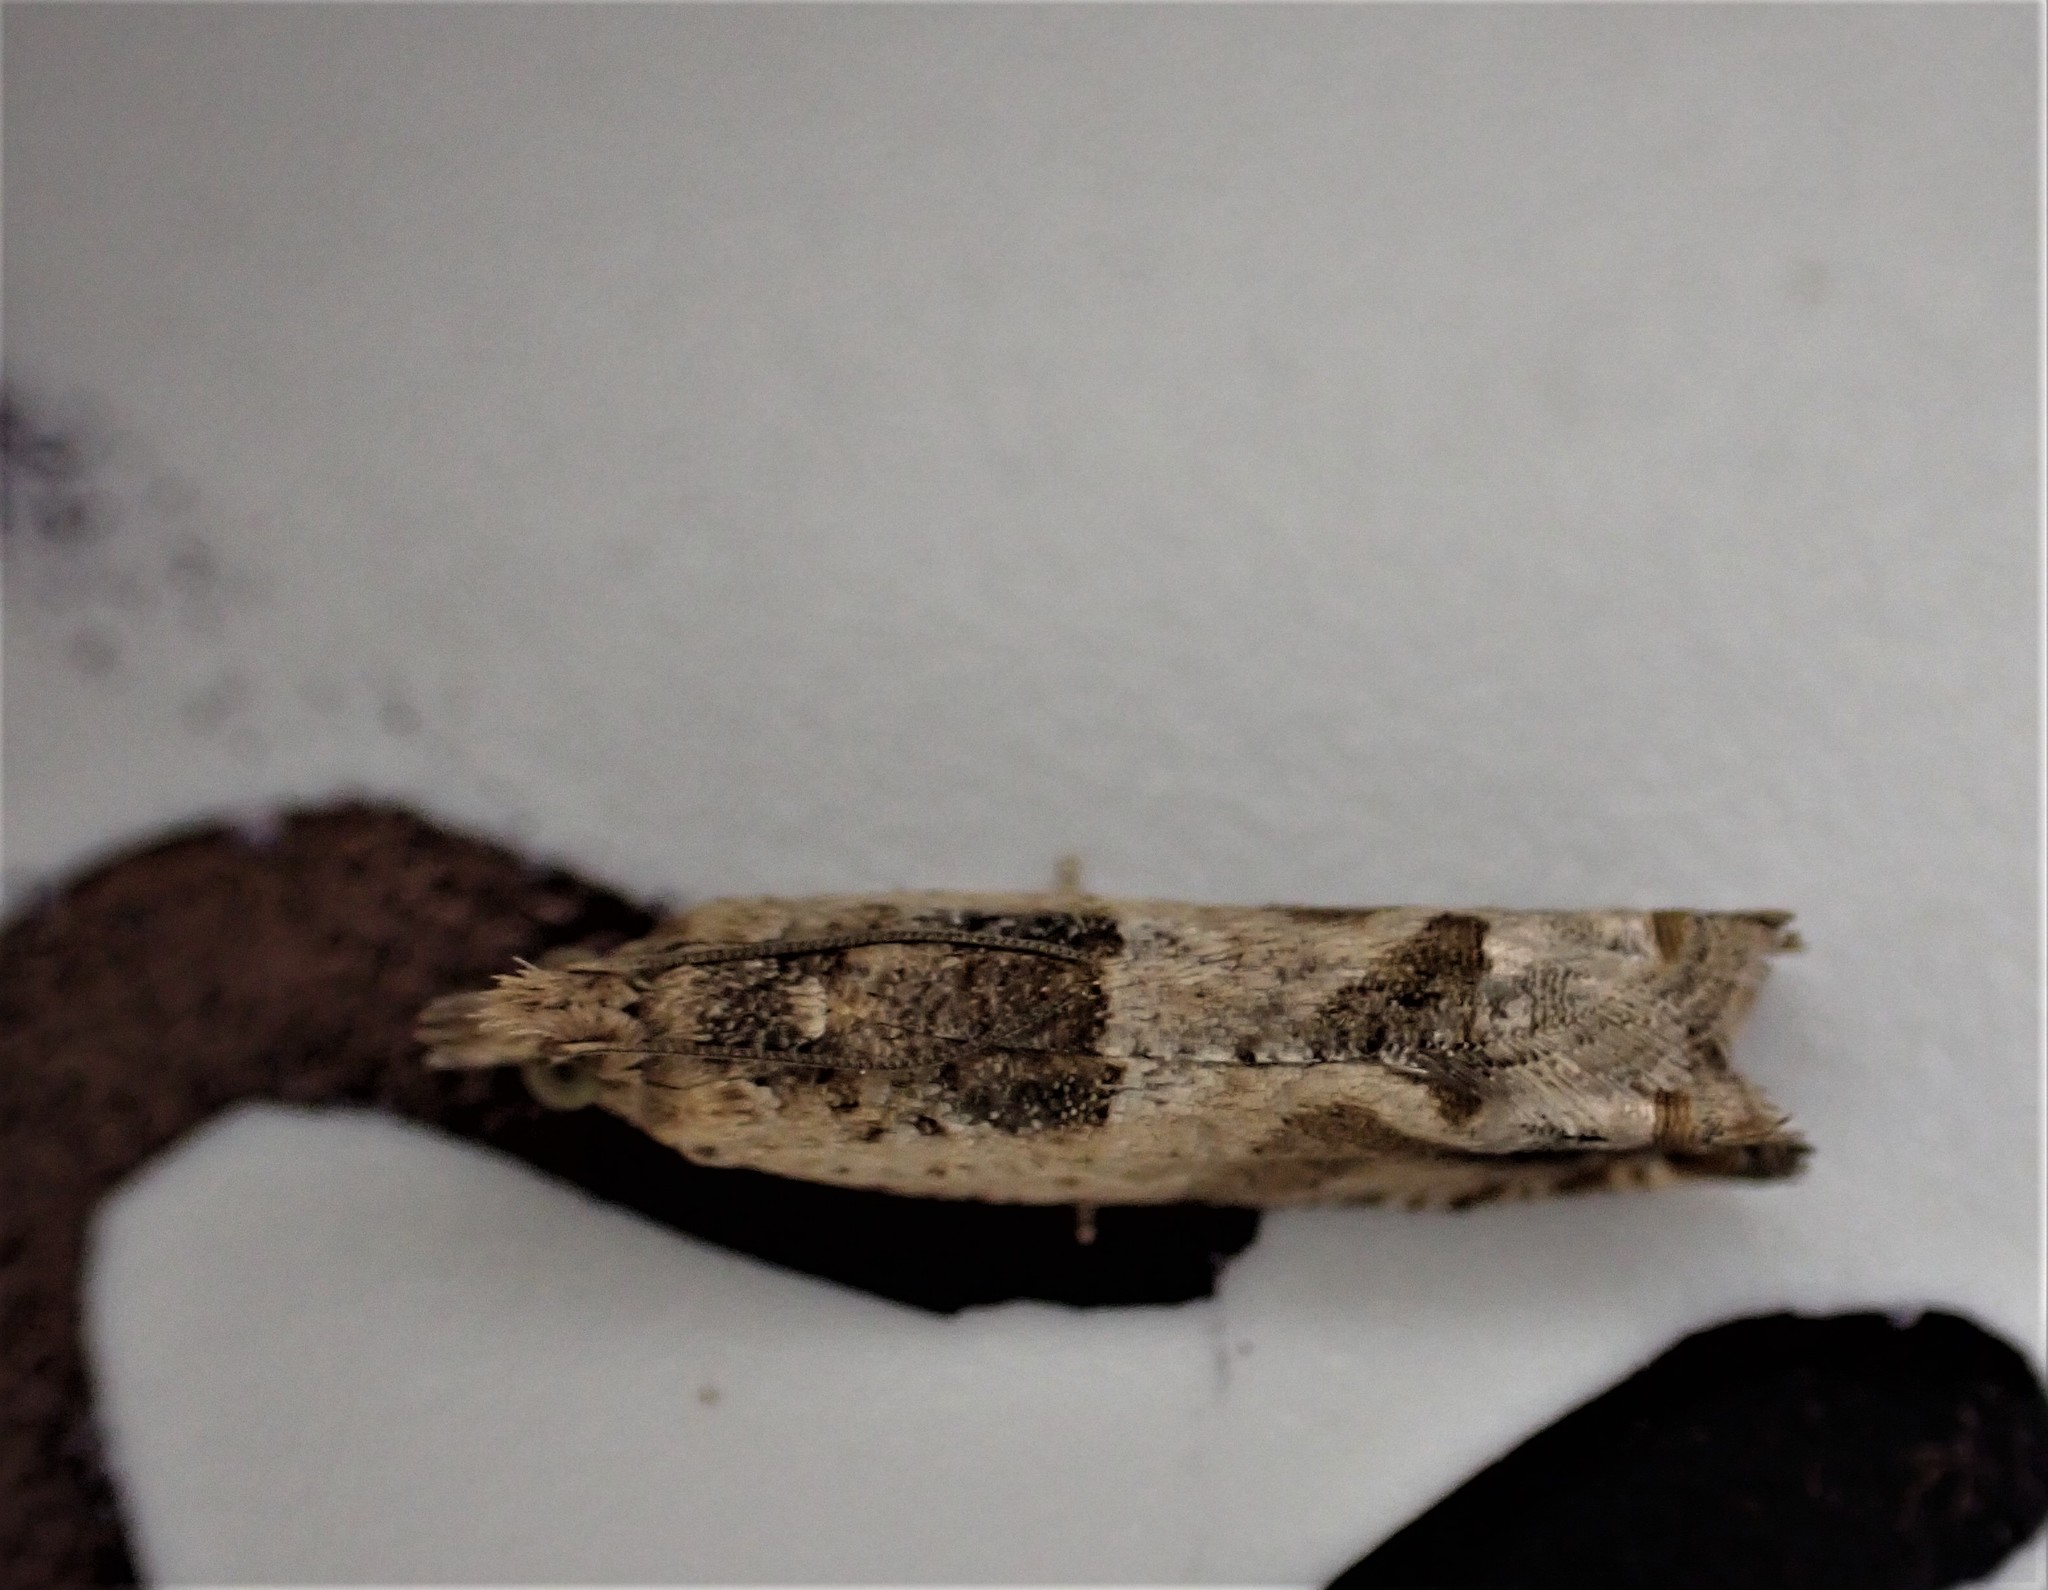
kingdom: Animalia
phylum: Arthropoda
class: Insecta
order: Lepidoptera
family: Tortricidae
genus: Crocidosema
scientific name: Crocidosema plebejana
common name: Southern bell
